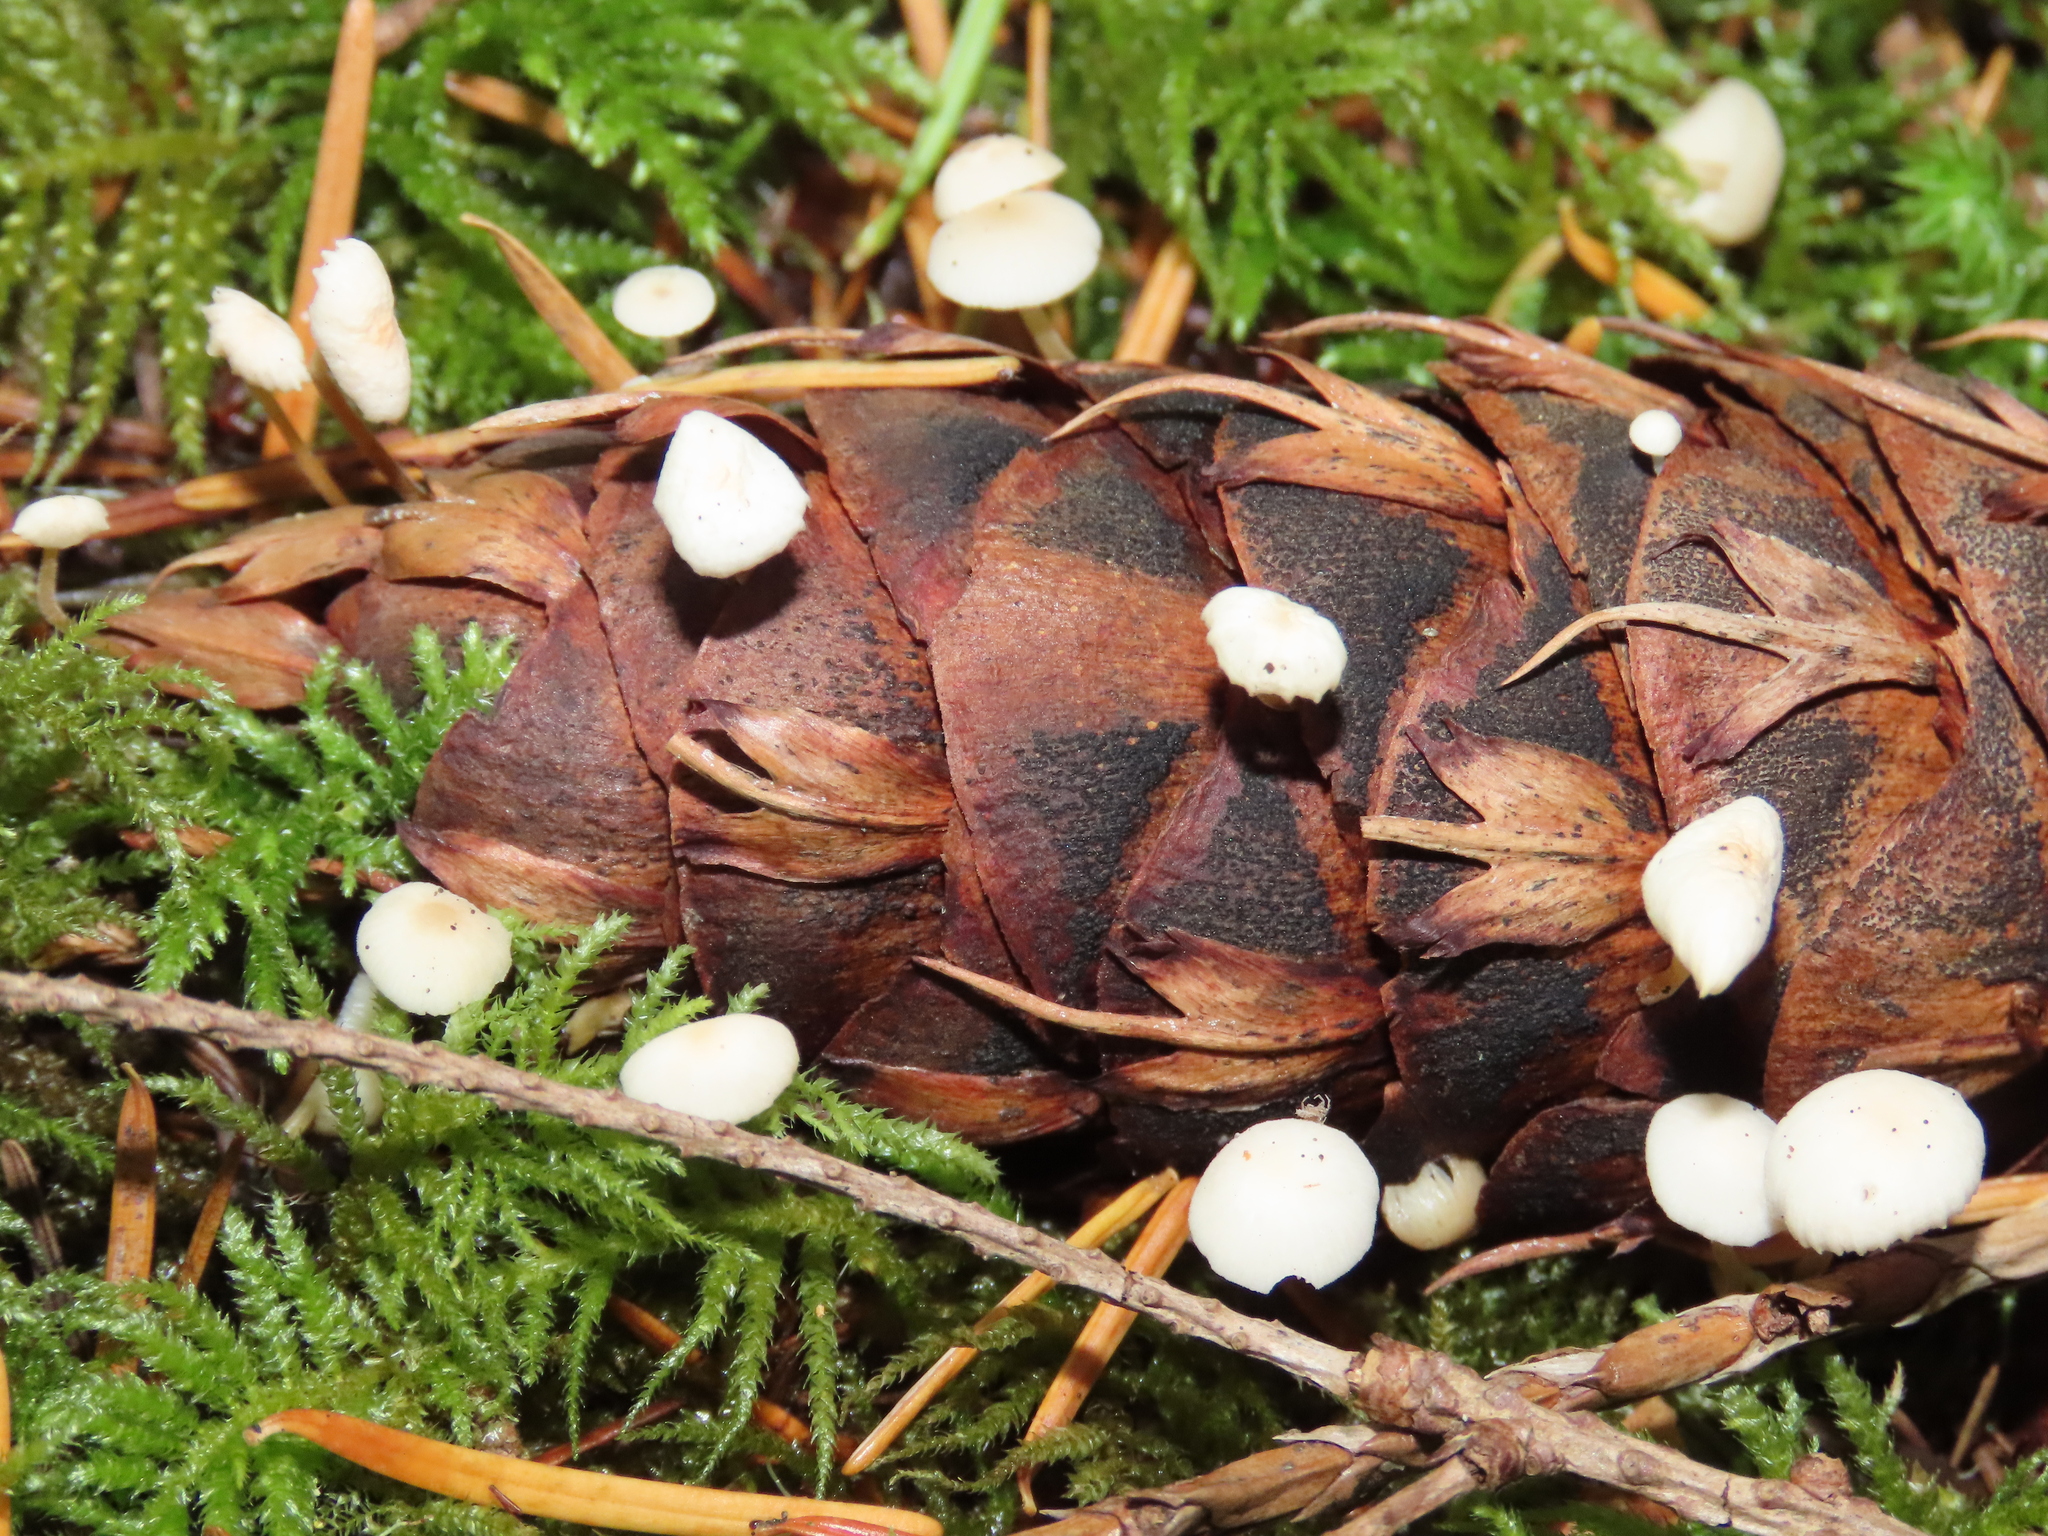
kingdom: Fungi
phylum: Basidiomycota
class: Agaricomycetes
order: Agaricales
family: Physalacriaceae
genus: Strobilurus
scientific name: Strobilurus trullisatus
